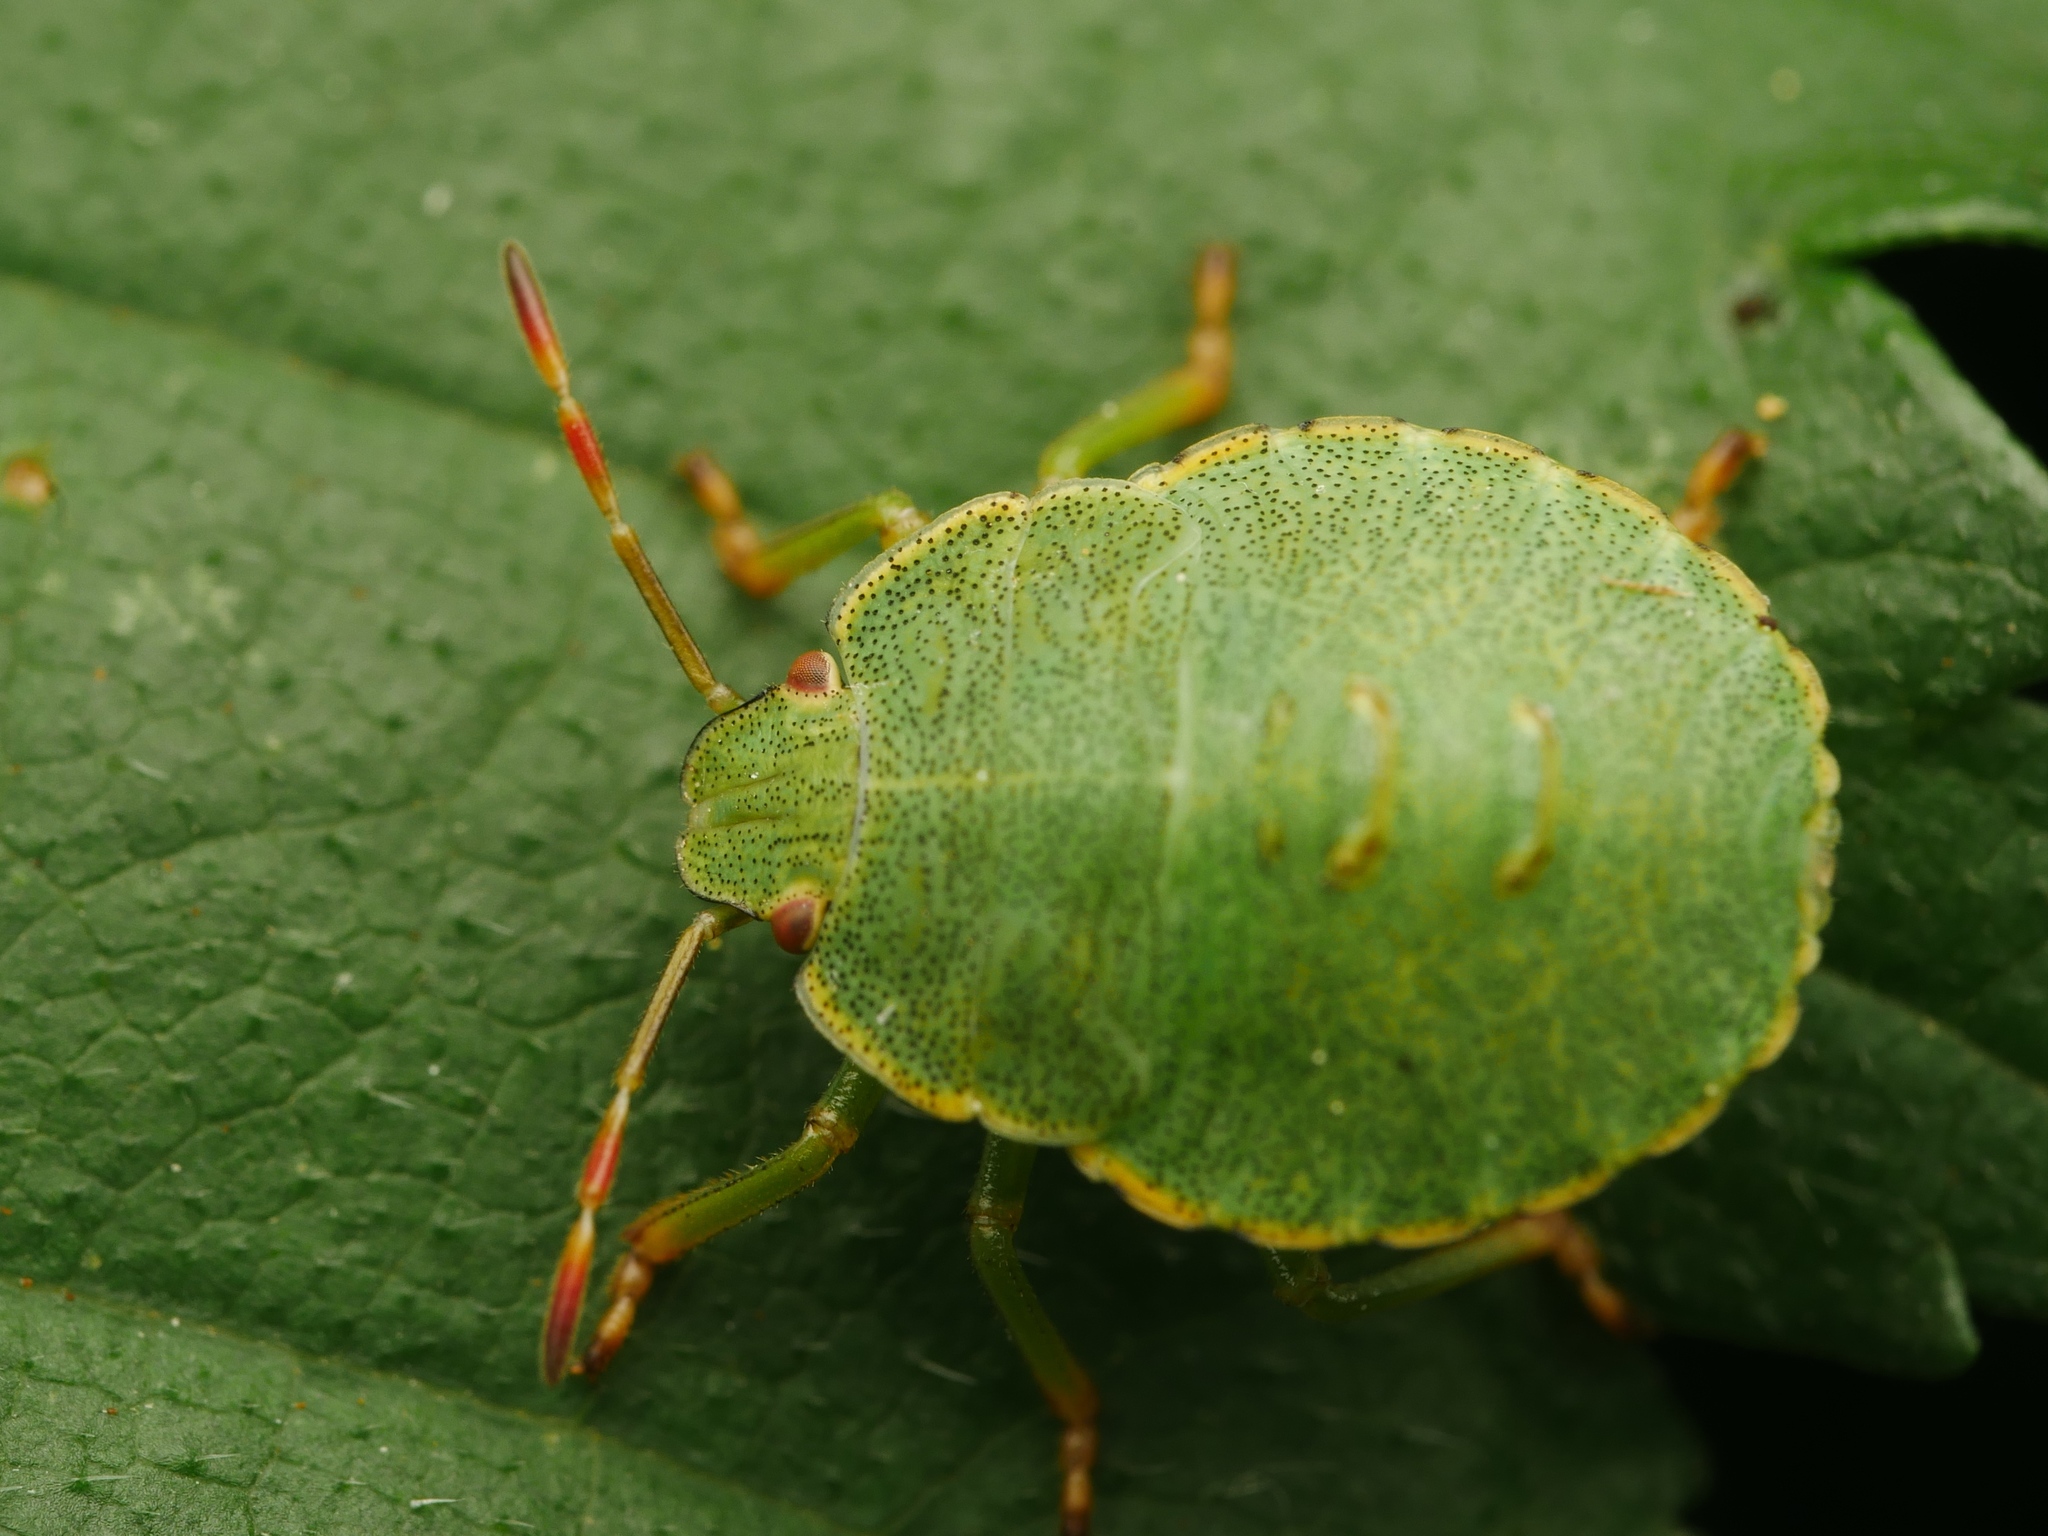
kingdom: Animalia
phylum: Arthropoda
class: Insecta
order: Hemiptera
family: Pentatomidae
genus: Palomena
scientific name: Palomena prasina
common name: Green shieldbug
